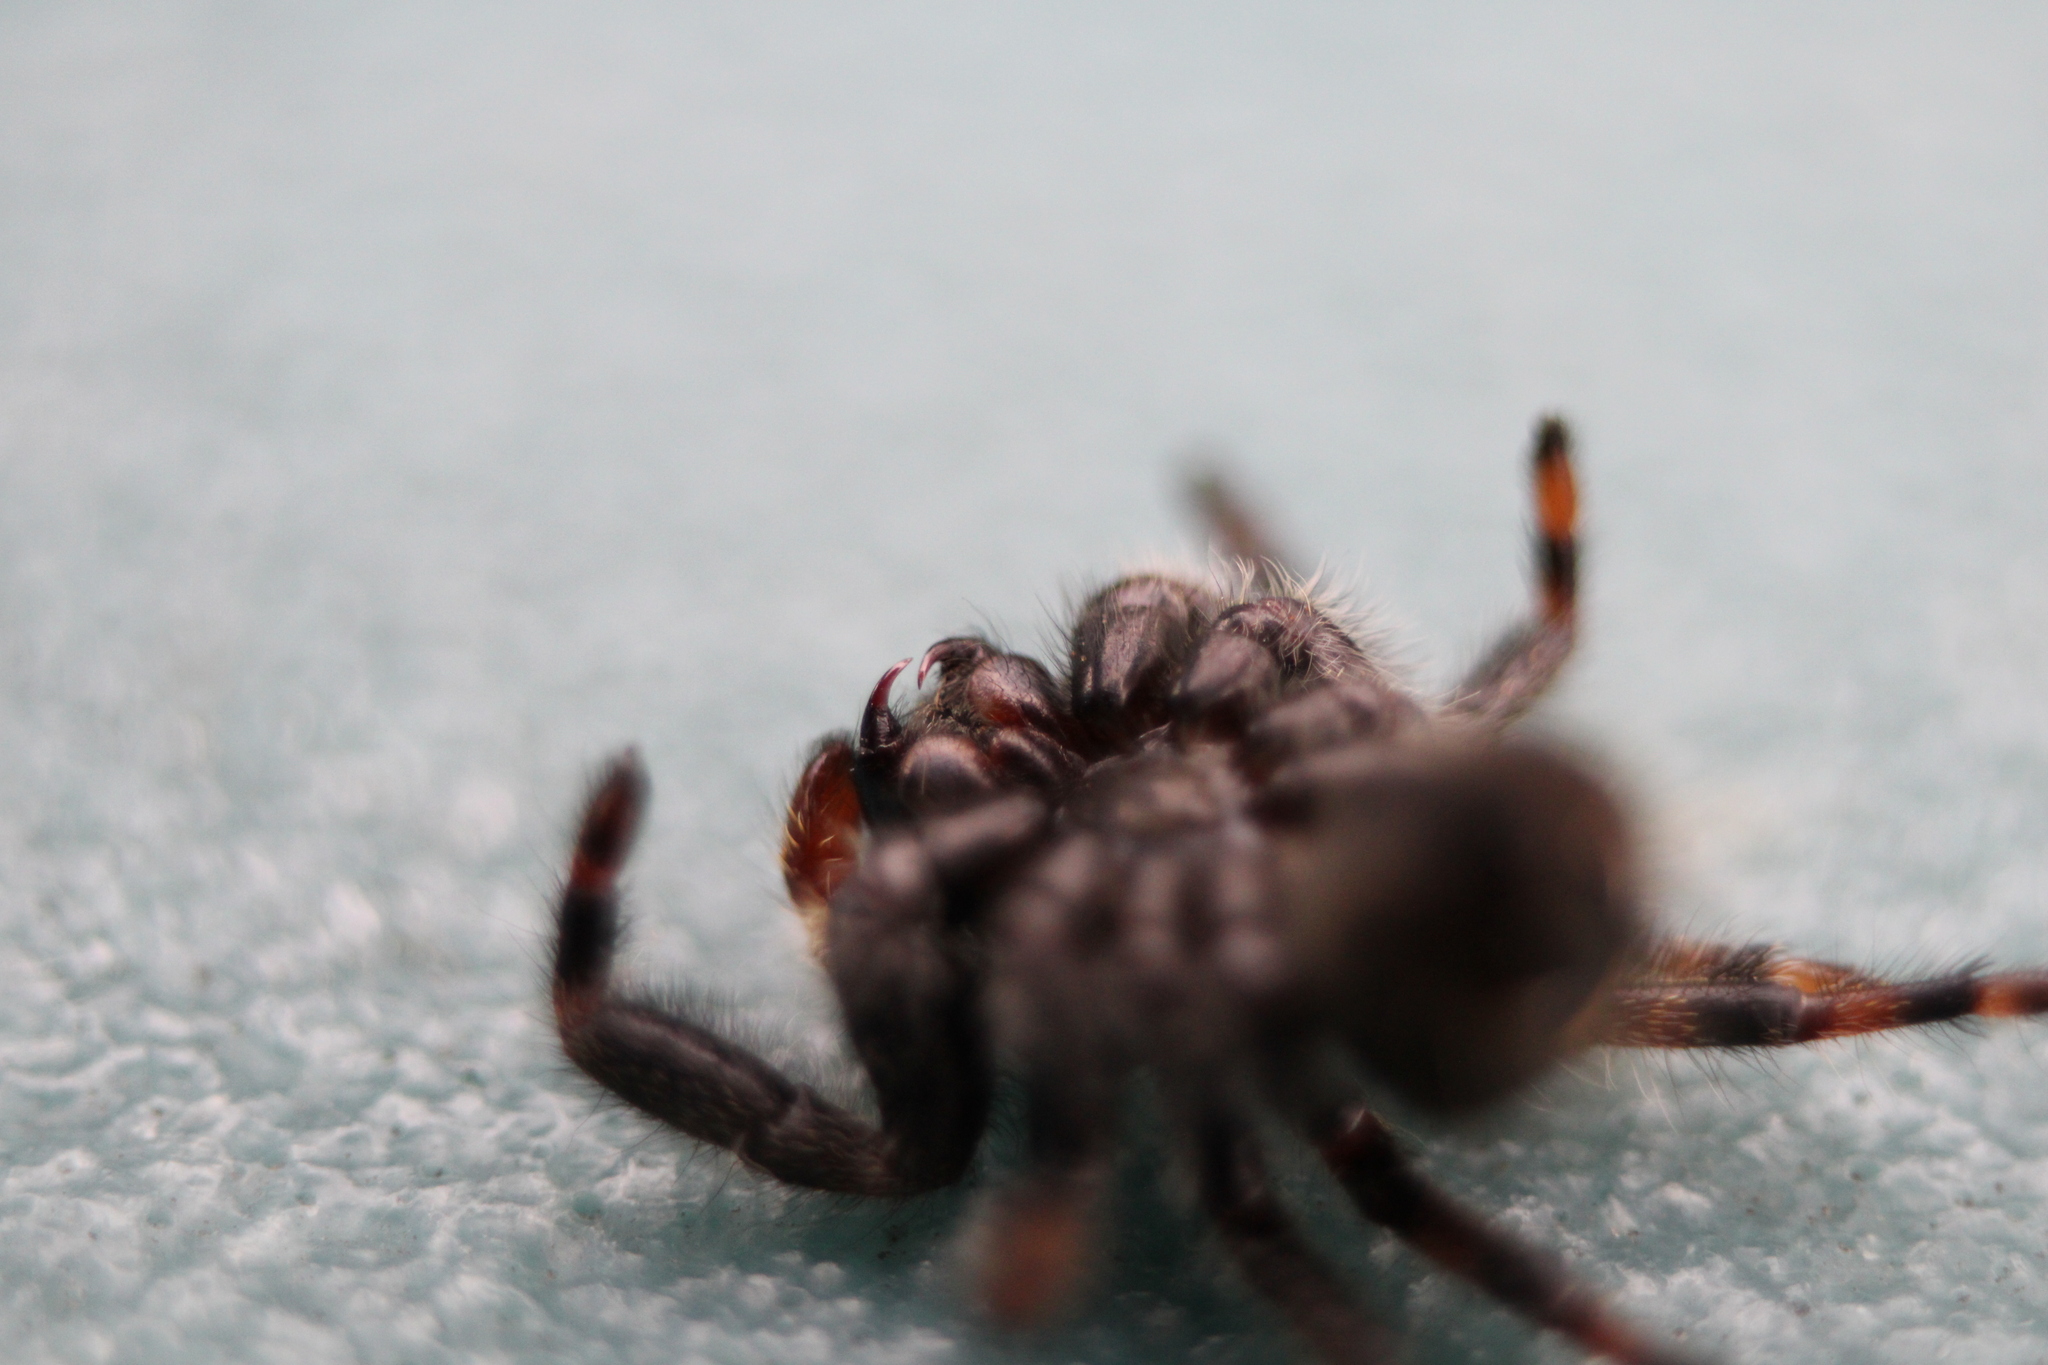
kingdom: Animalia
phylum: Arthropoda
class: Arachnida
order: Araneae
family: Salticidae
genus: Phidippus
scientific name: Phidippus audax
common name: Bold jumper
